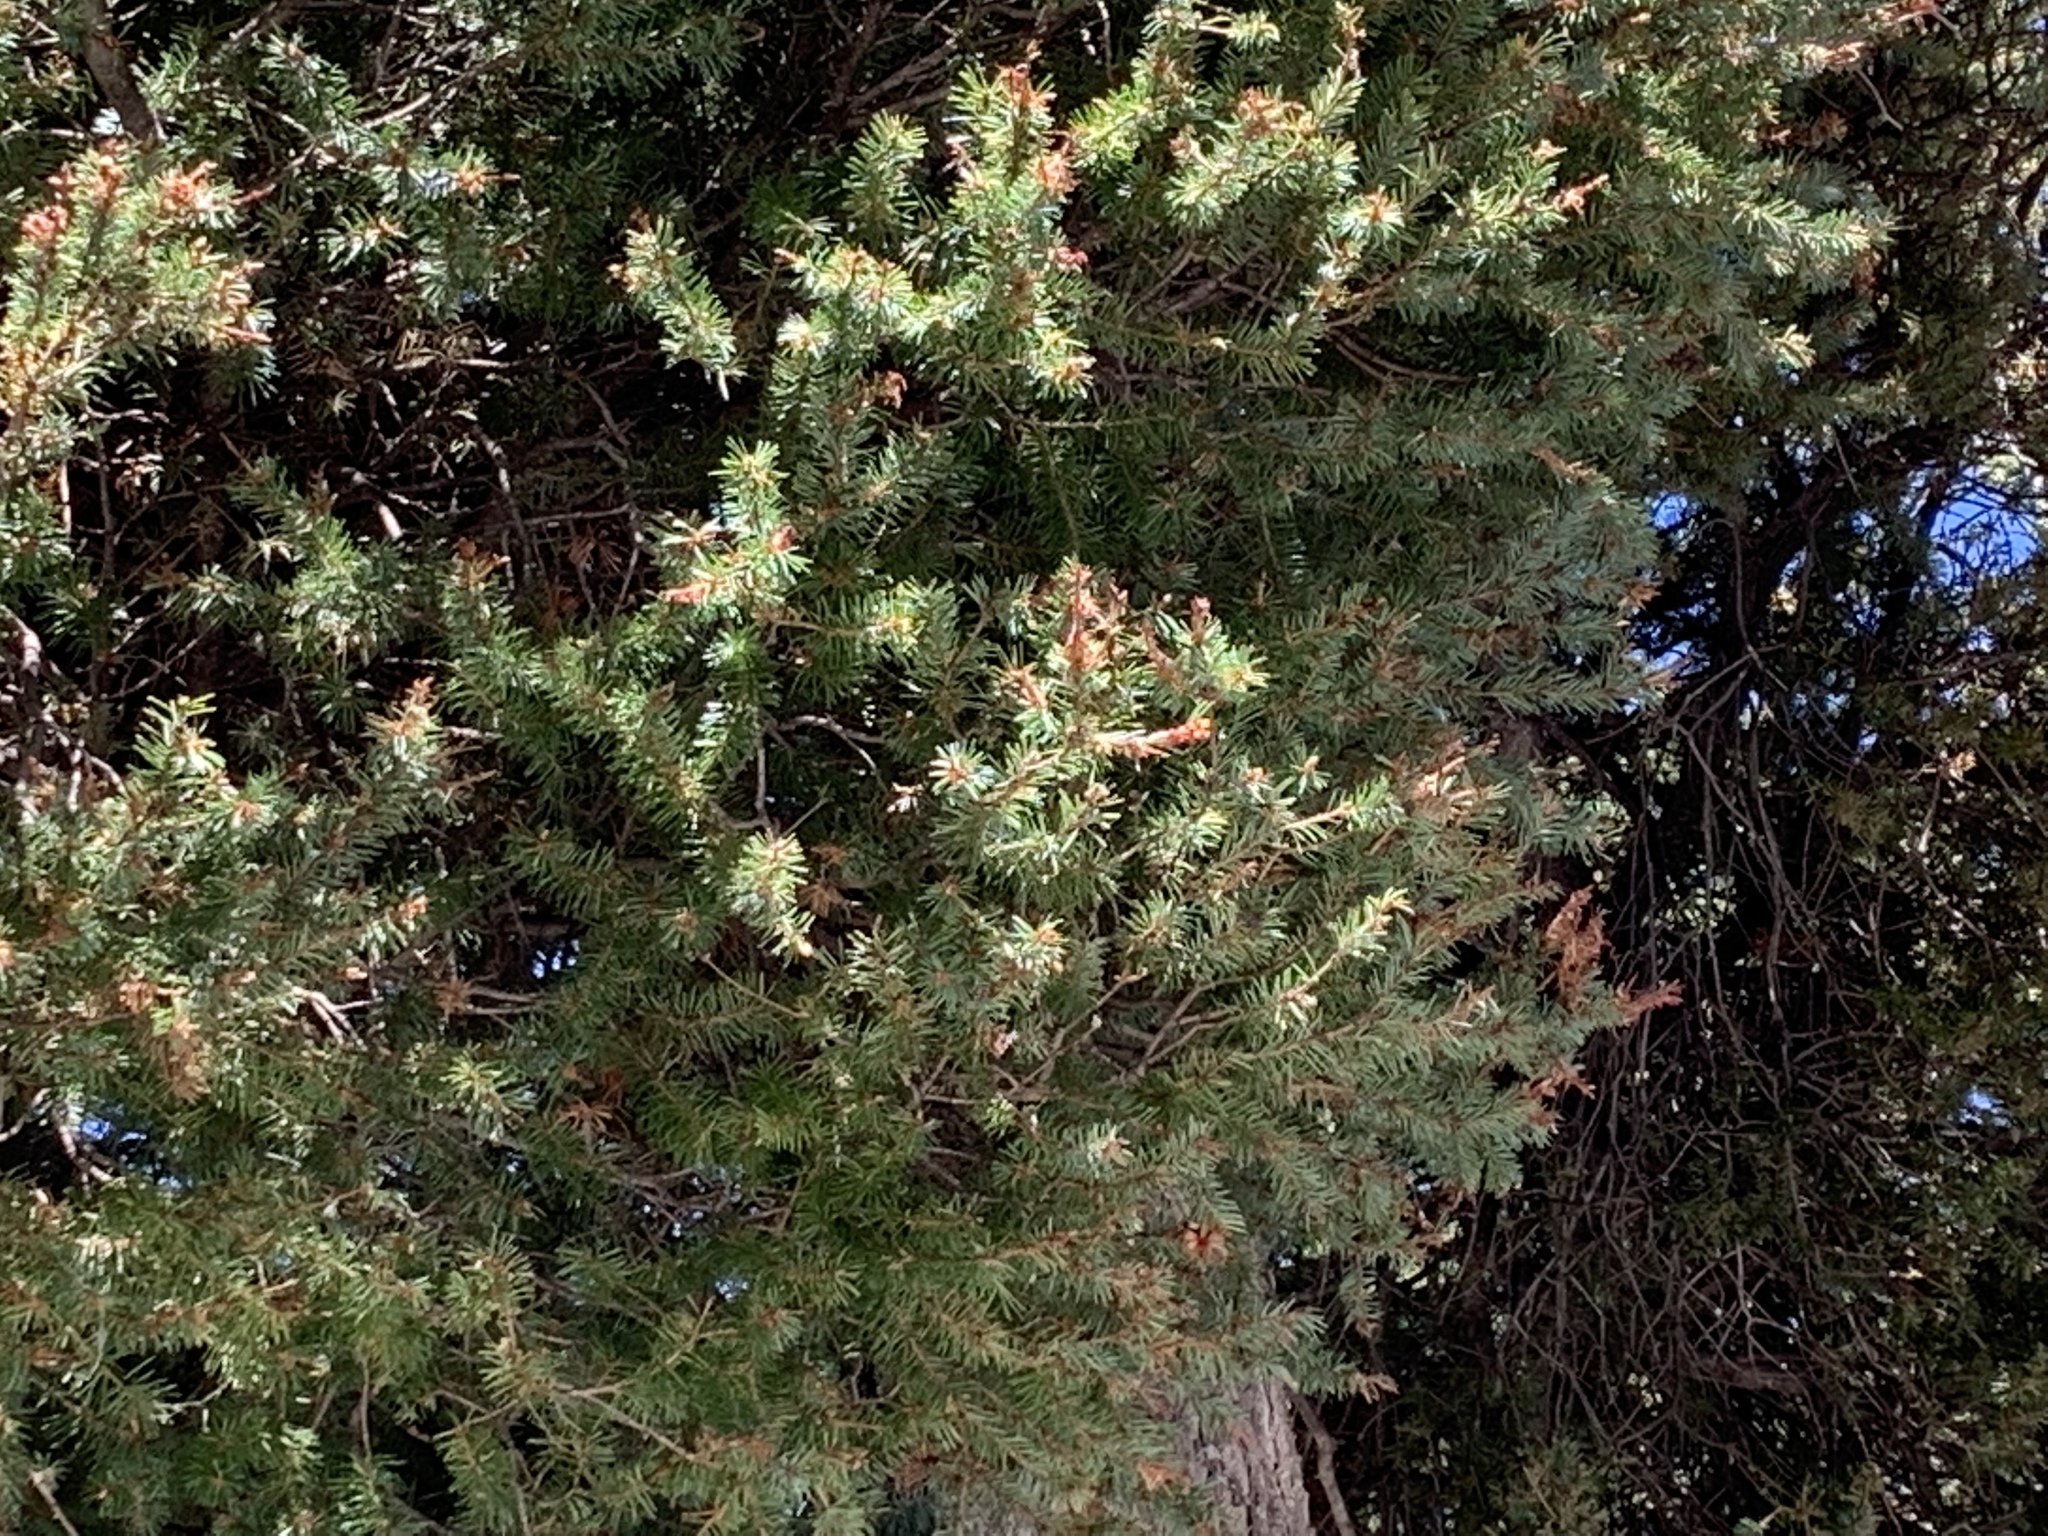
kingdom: Plantae
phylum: Tracheophyta
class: Pinopsida
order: Pinales
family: Pinaceae
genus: Pseudotsuga
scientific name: Pseudotsuga menziesii
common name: Douglas fir
